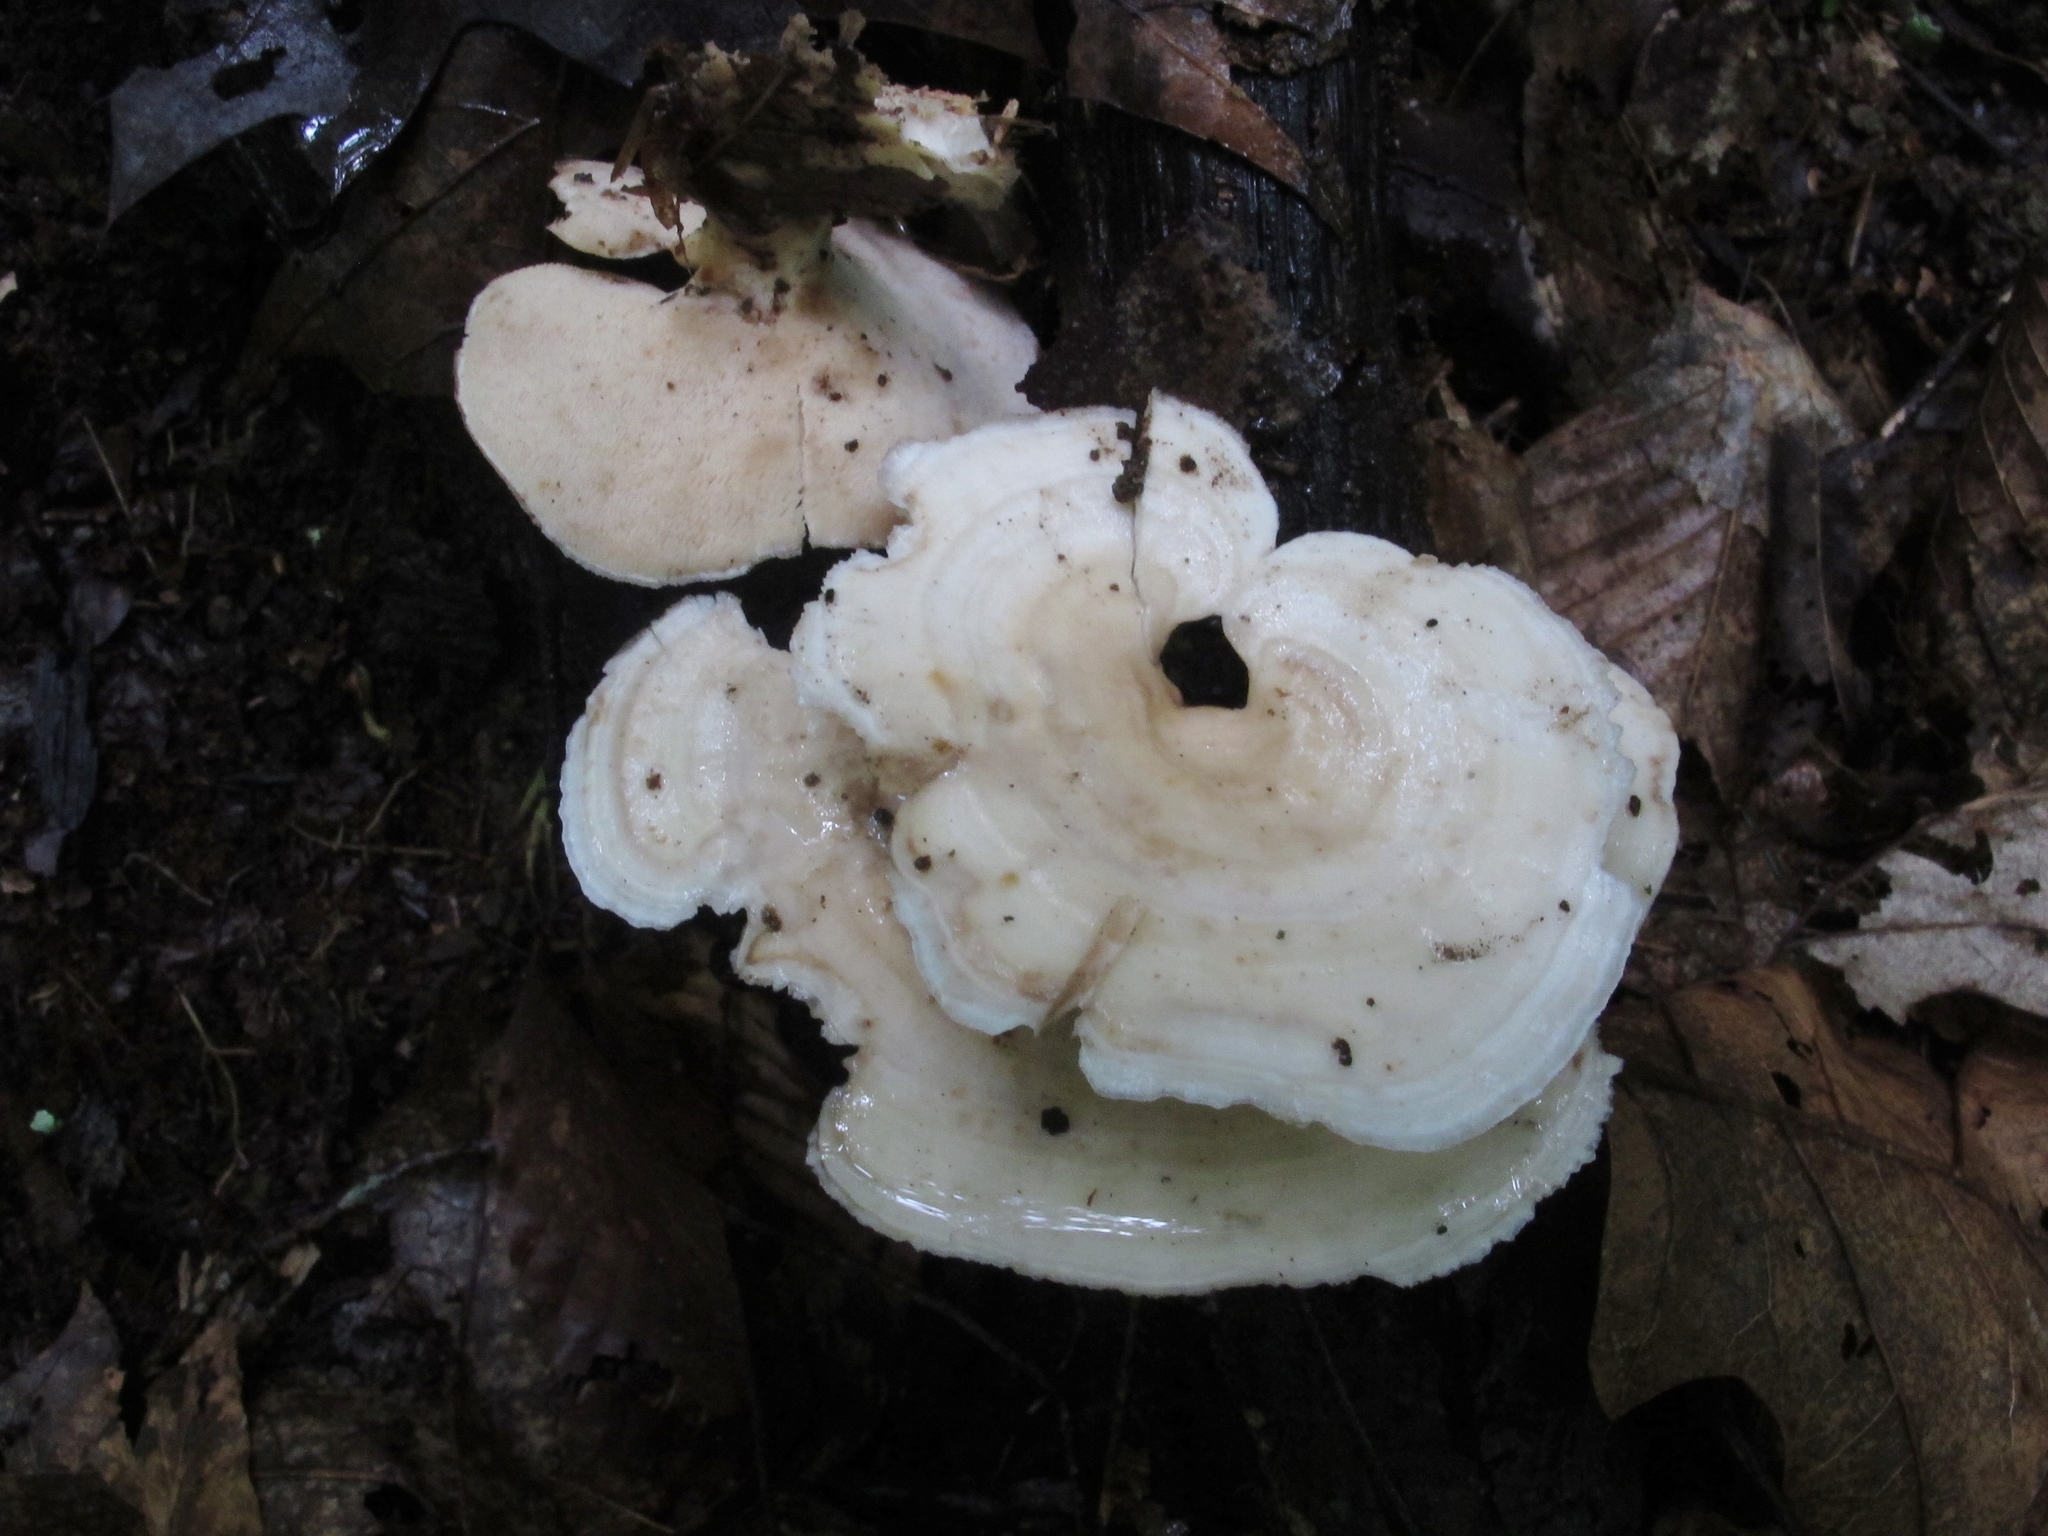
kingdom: Fungi
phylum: Basidiomycota
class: Agaricomycetes
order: Polyporales
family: Steccherinaceae
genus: Mycorrhaphium
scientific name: Mycorrhaphium adustum
